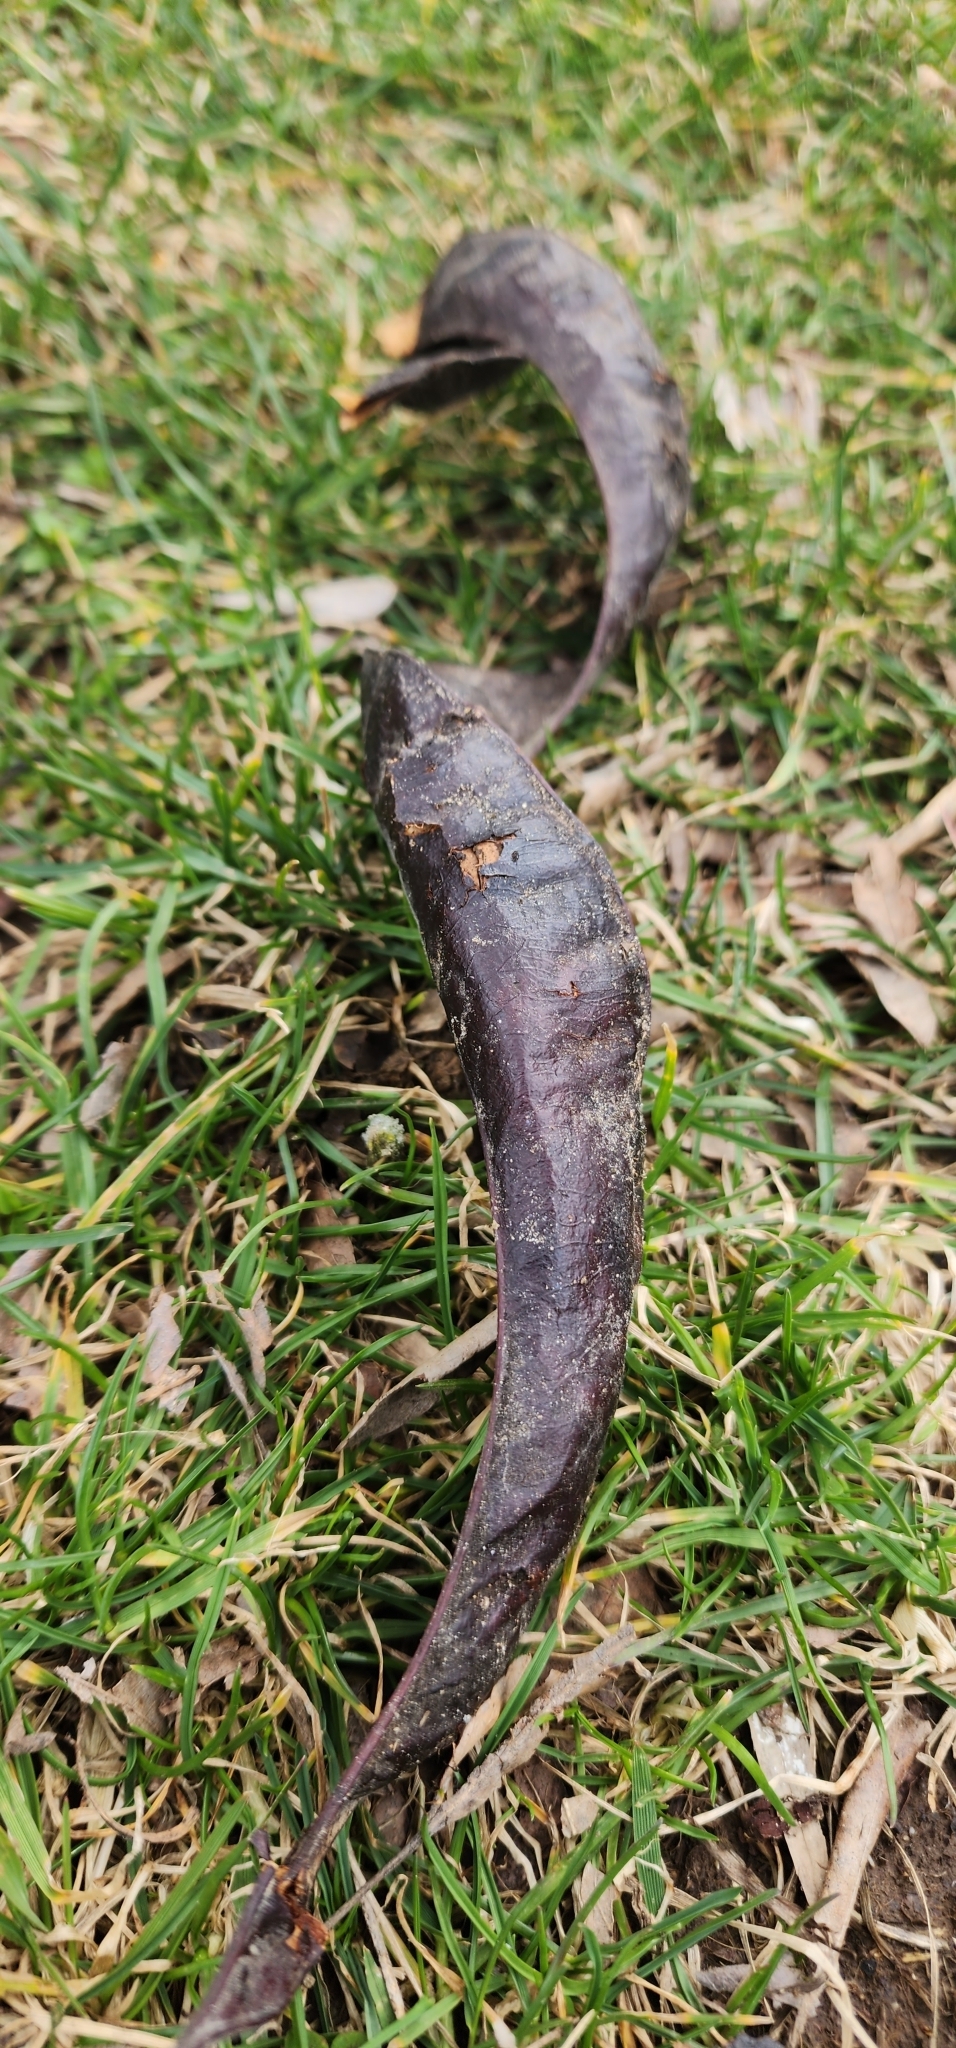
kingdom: Plantae
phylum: Tracheophyta
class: Magnoliopsida
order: Fabales
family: Fabaceae
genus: Gleditsia
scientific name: Gleditsia triacanthos
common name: Common honeylocust
